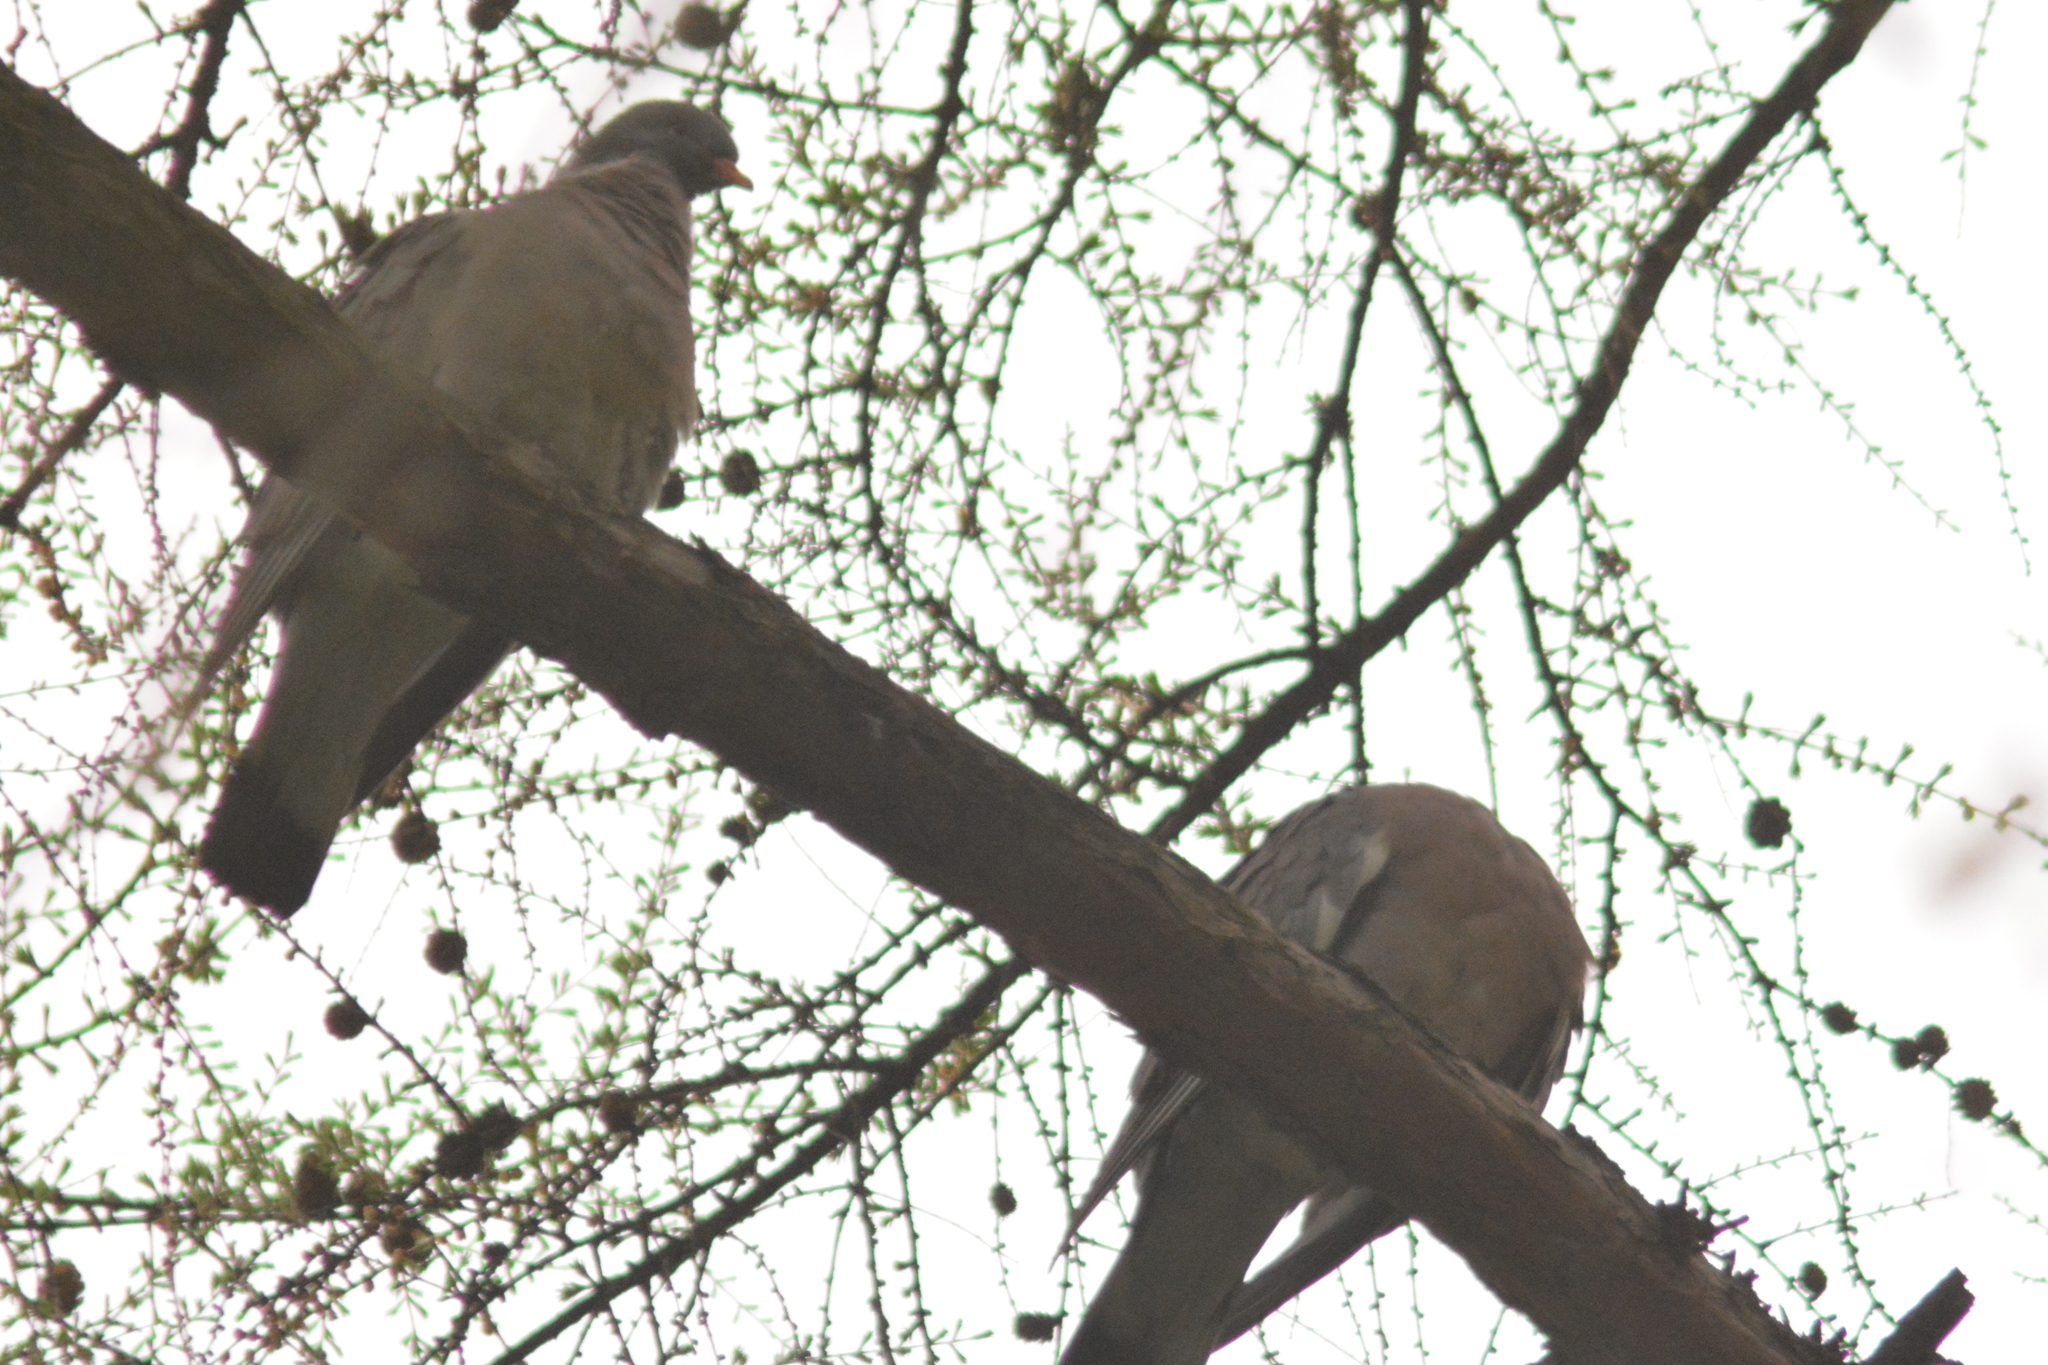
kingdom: Animalia
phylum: Chordata
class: Aves
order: Columbiformes
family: Columbidae
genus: Columba
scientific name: Columba palumbus
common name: Common wood pigeon
